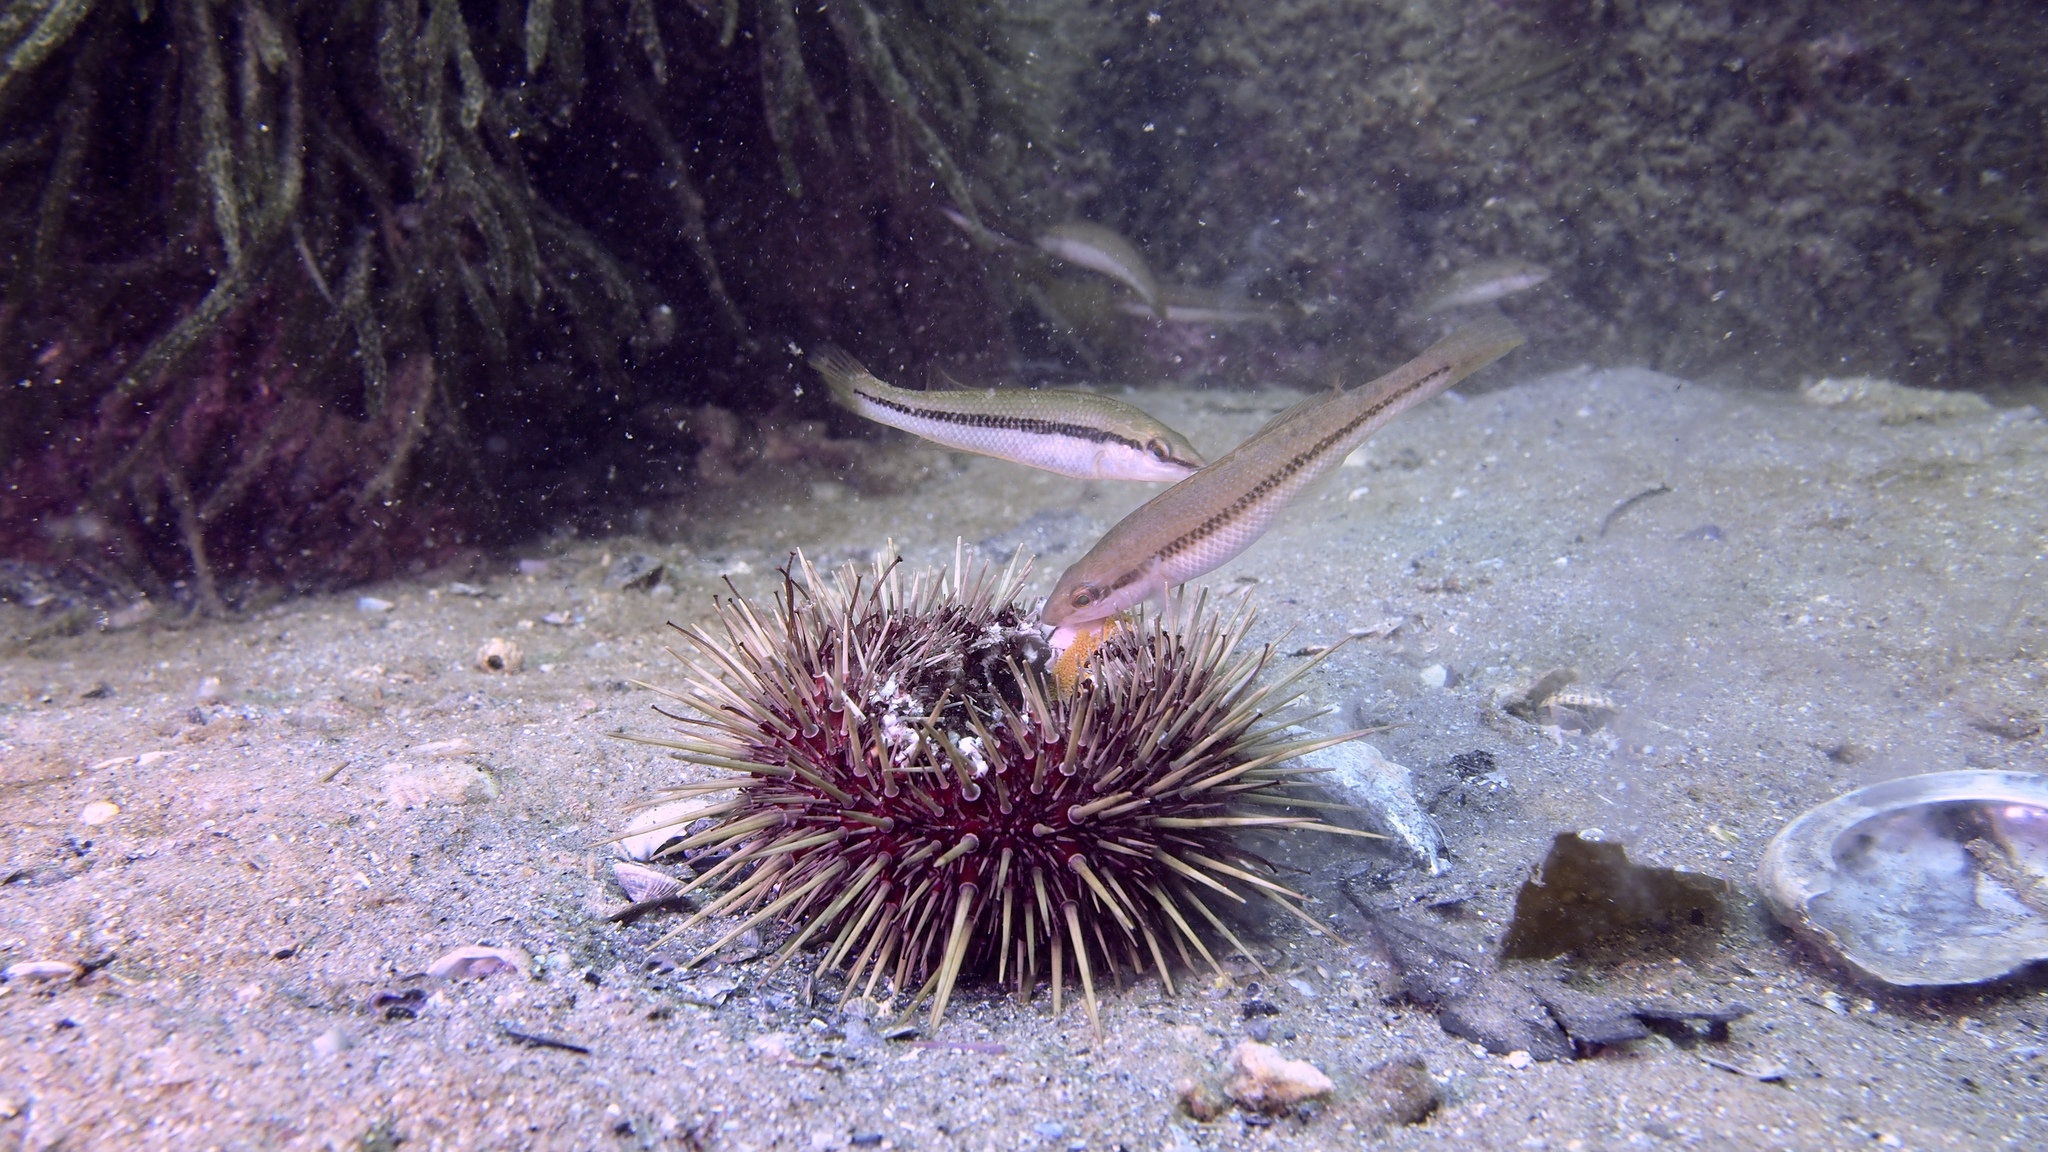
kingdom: Animalia
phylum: Chordata
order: Perciformes
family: Odacidae
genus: Neoodax
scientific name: Neoodax balteatus
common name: Ground mullet
